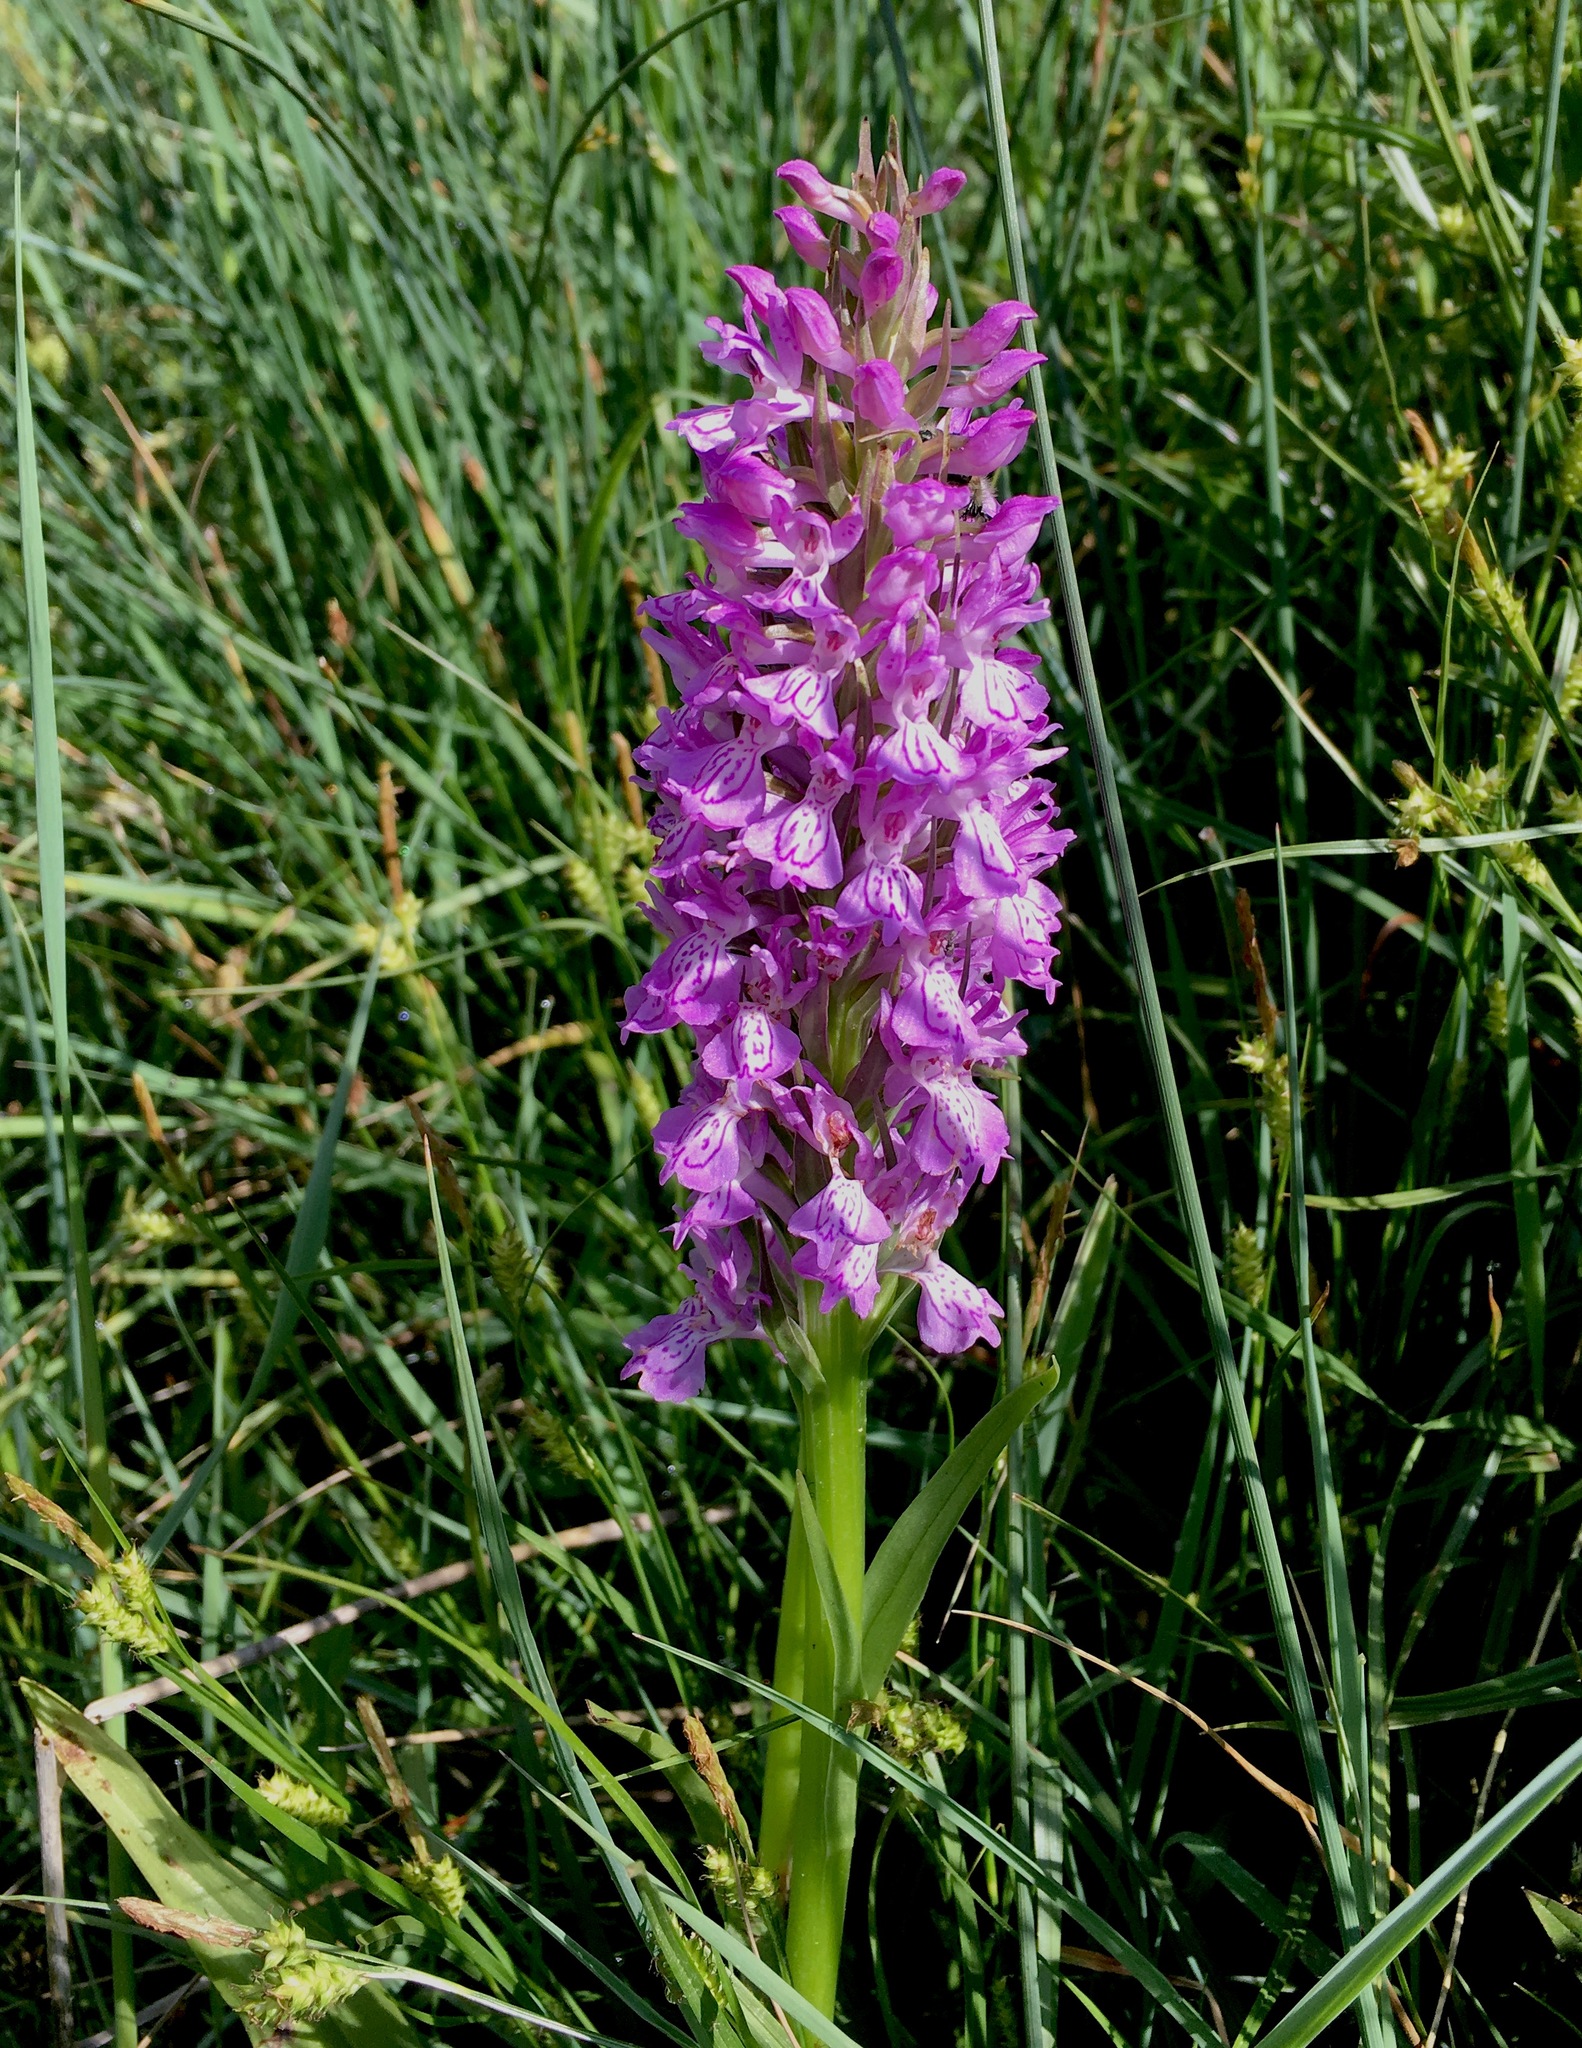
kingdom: Plantae
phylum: Tracheophyta
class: Liliopsida
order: Asparagales
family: Orchidaceae
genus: Dactylorhiza
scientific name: Dactylorhiza incarnata
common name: Early marsh-orchid
